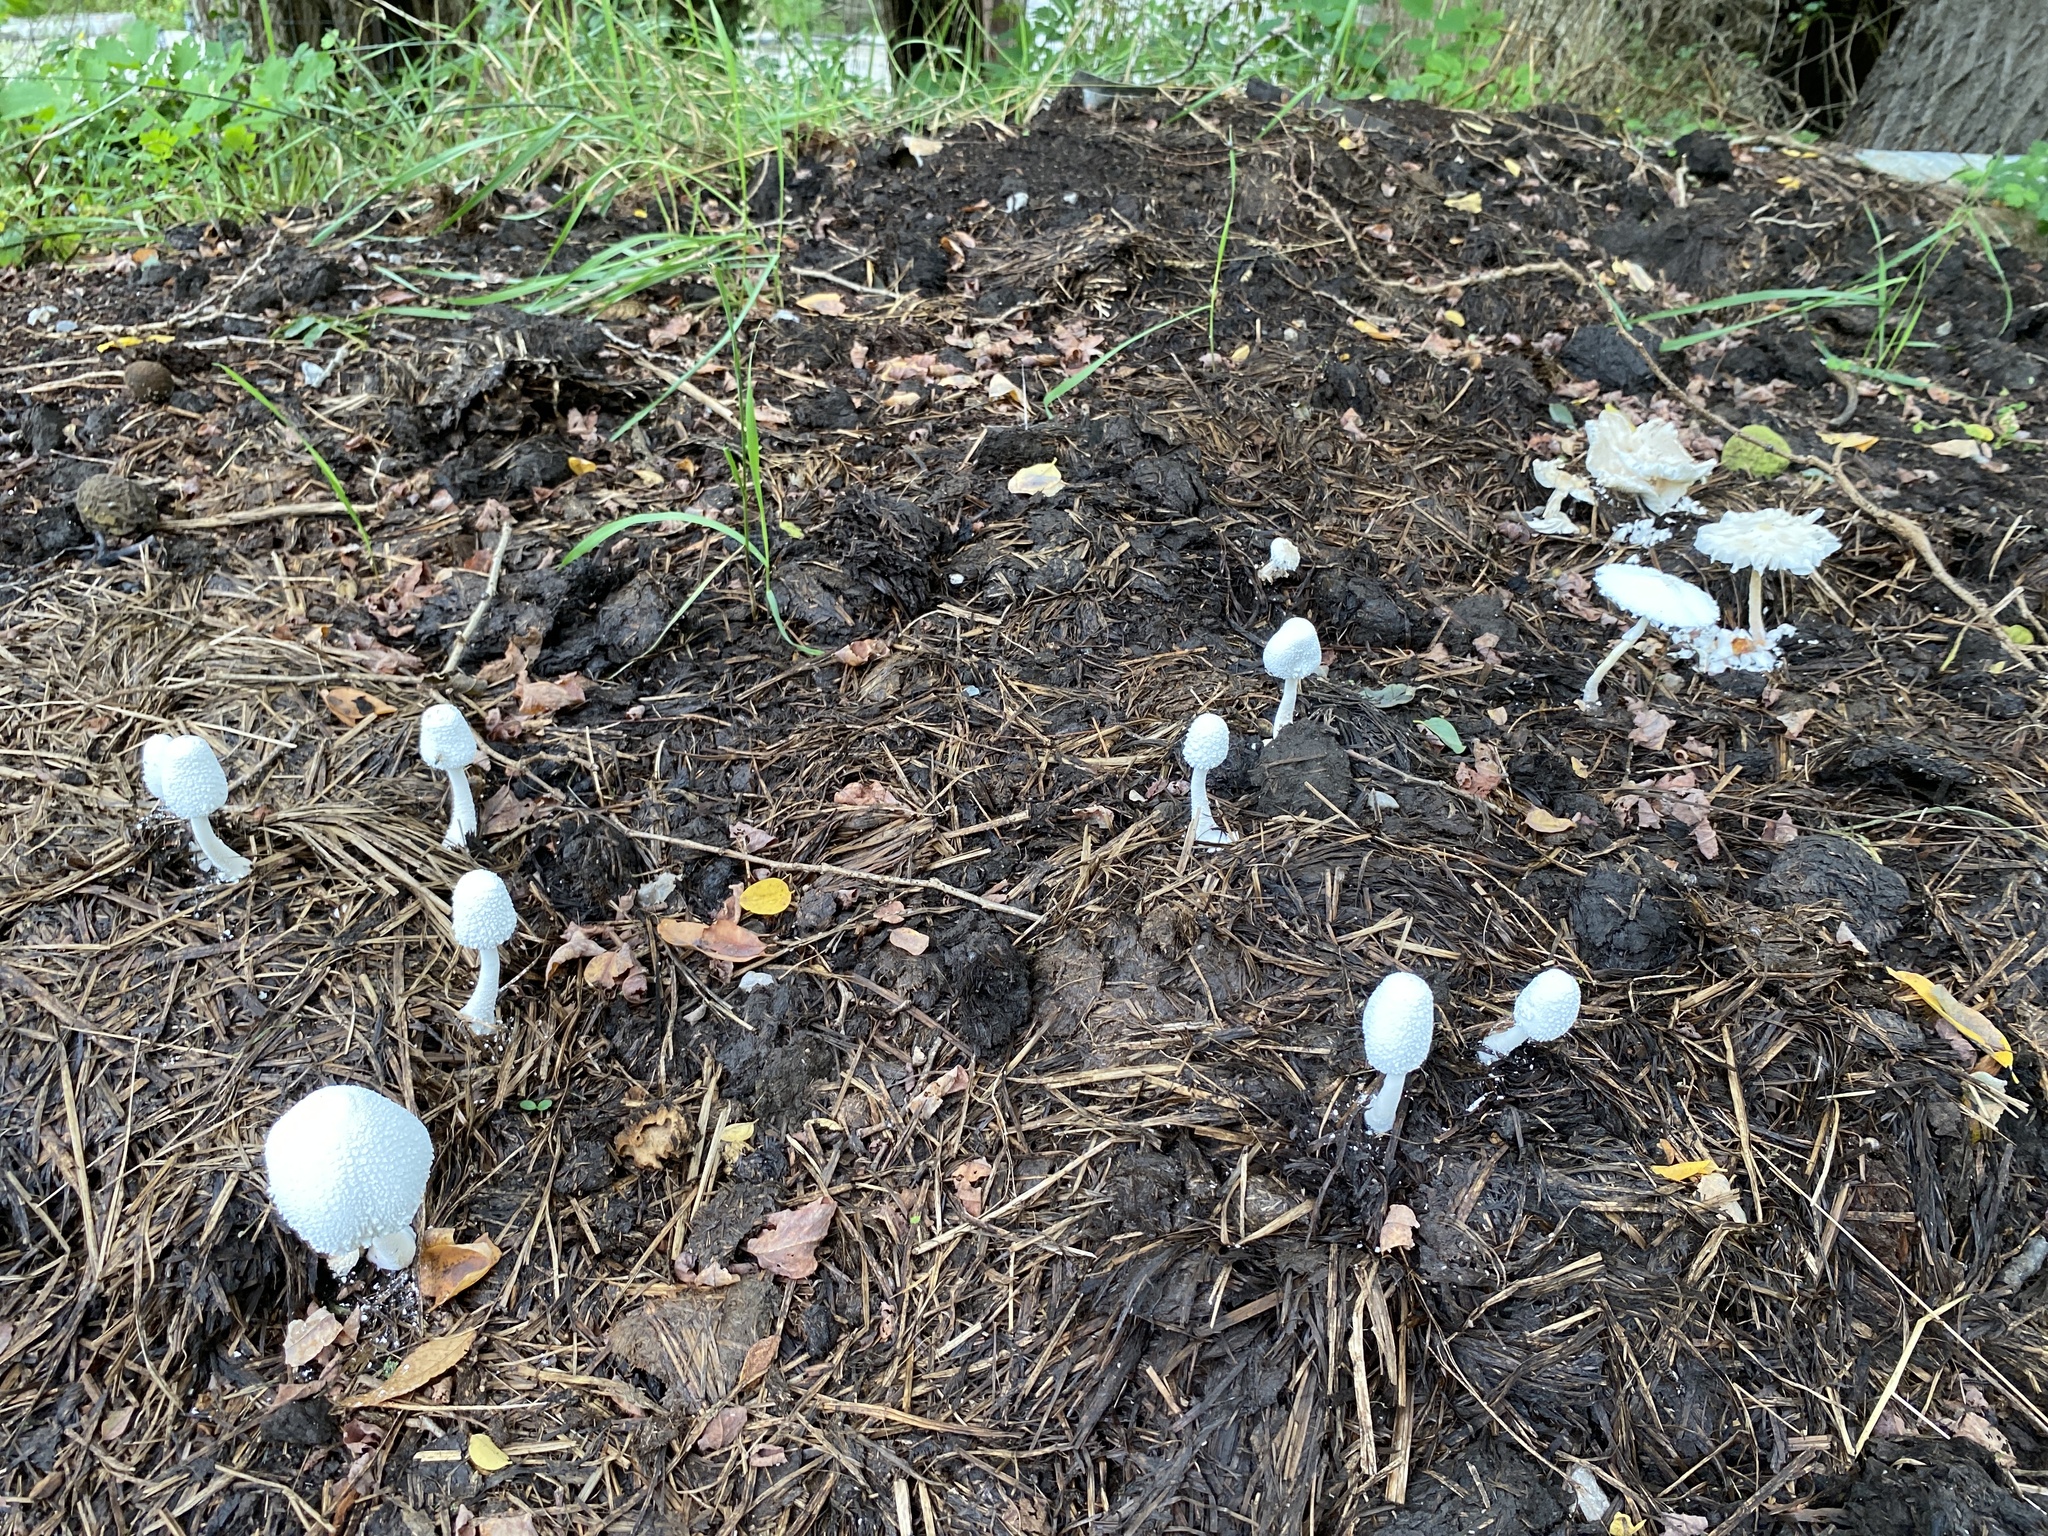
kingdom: Fungi
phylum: Basidiomycota
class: Agaricomycetes
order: Agaricales
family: Agaricaceae
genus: Leucocoprinus
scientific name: Leucocoprinus cretaceus
